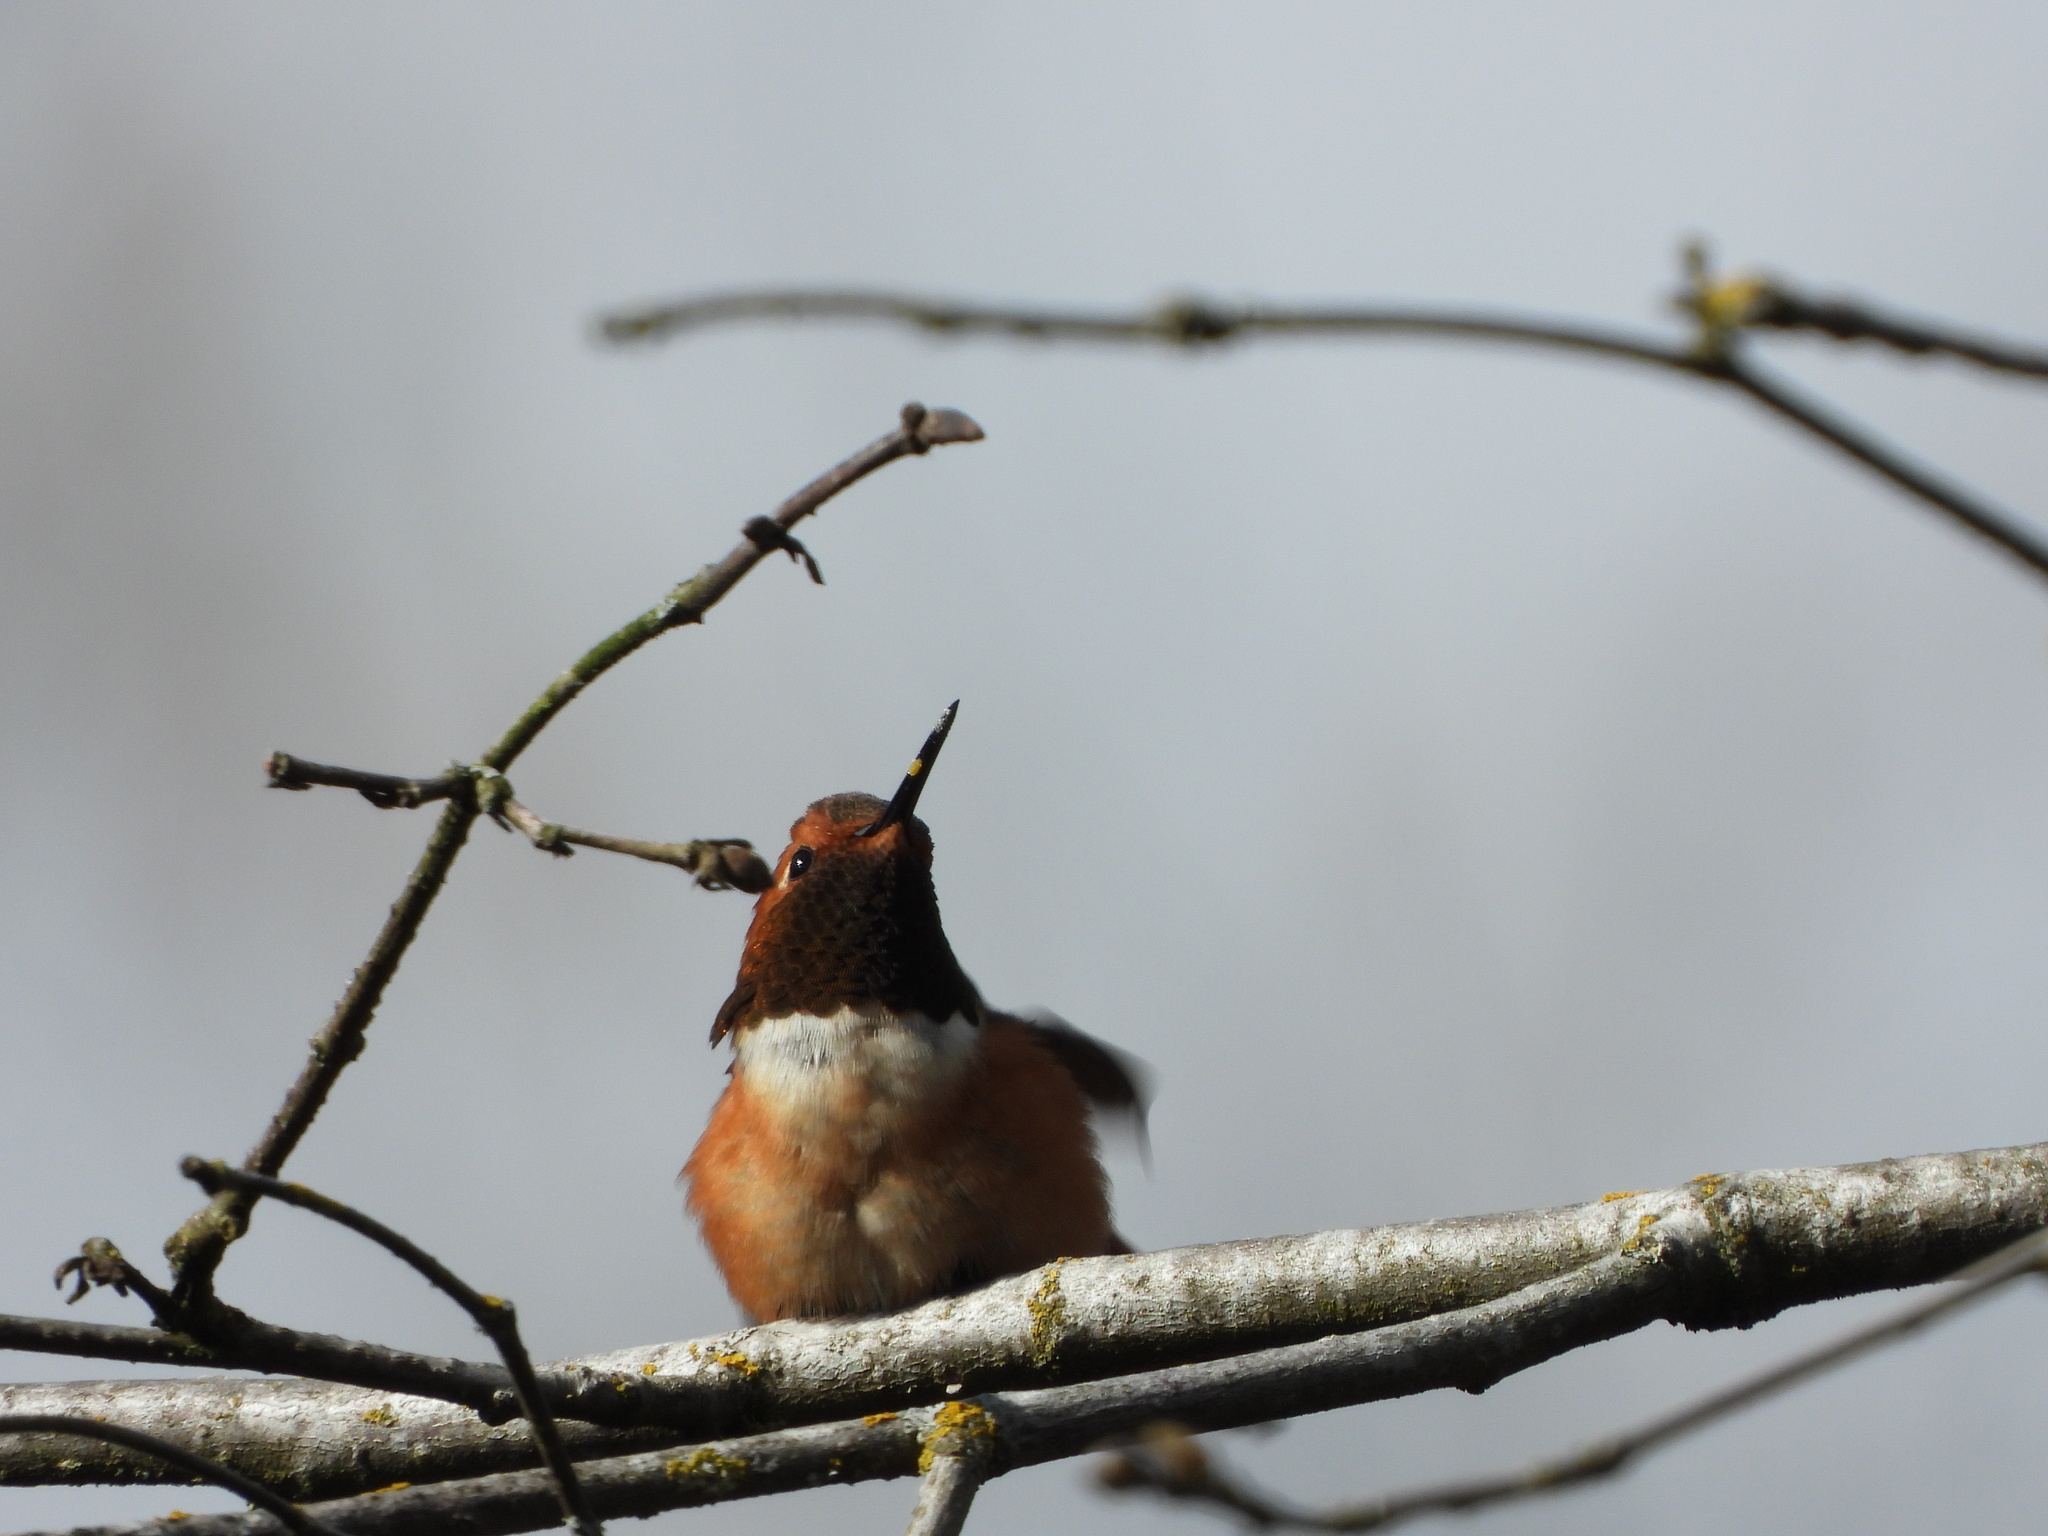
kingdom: Animalia
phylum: Chordata
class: Aves
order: Apodiformes
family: Trochilidae
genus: Selasphorus
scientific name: Selasphorus rufus
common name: Rufous hummingbird
